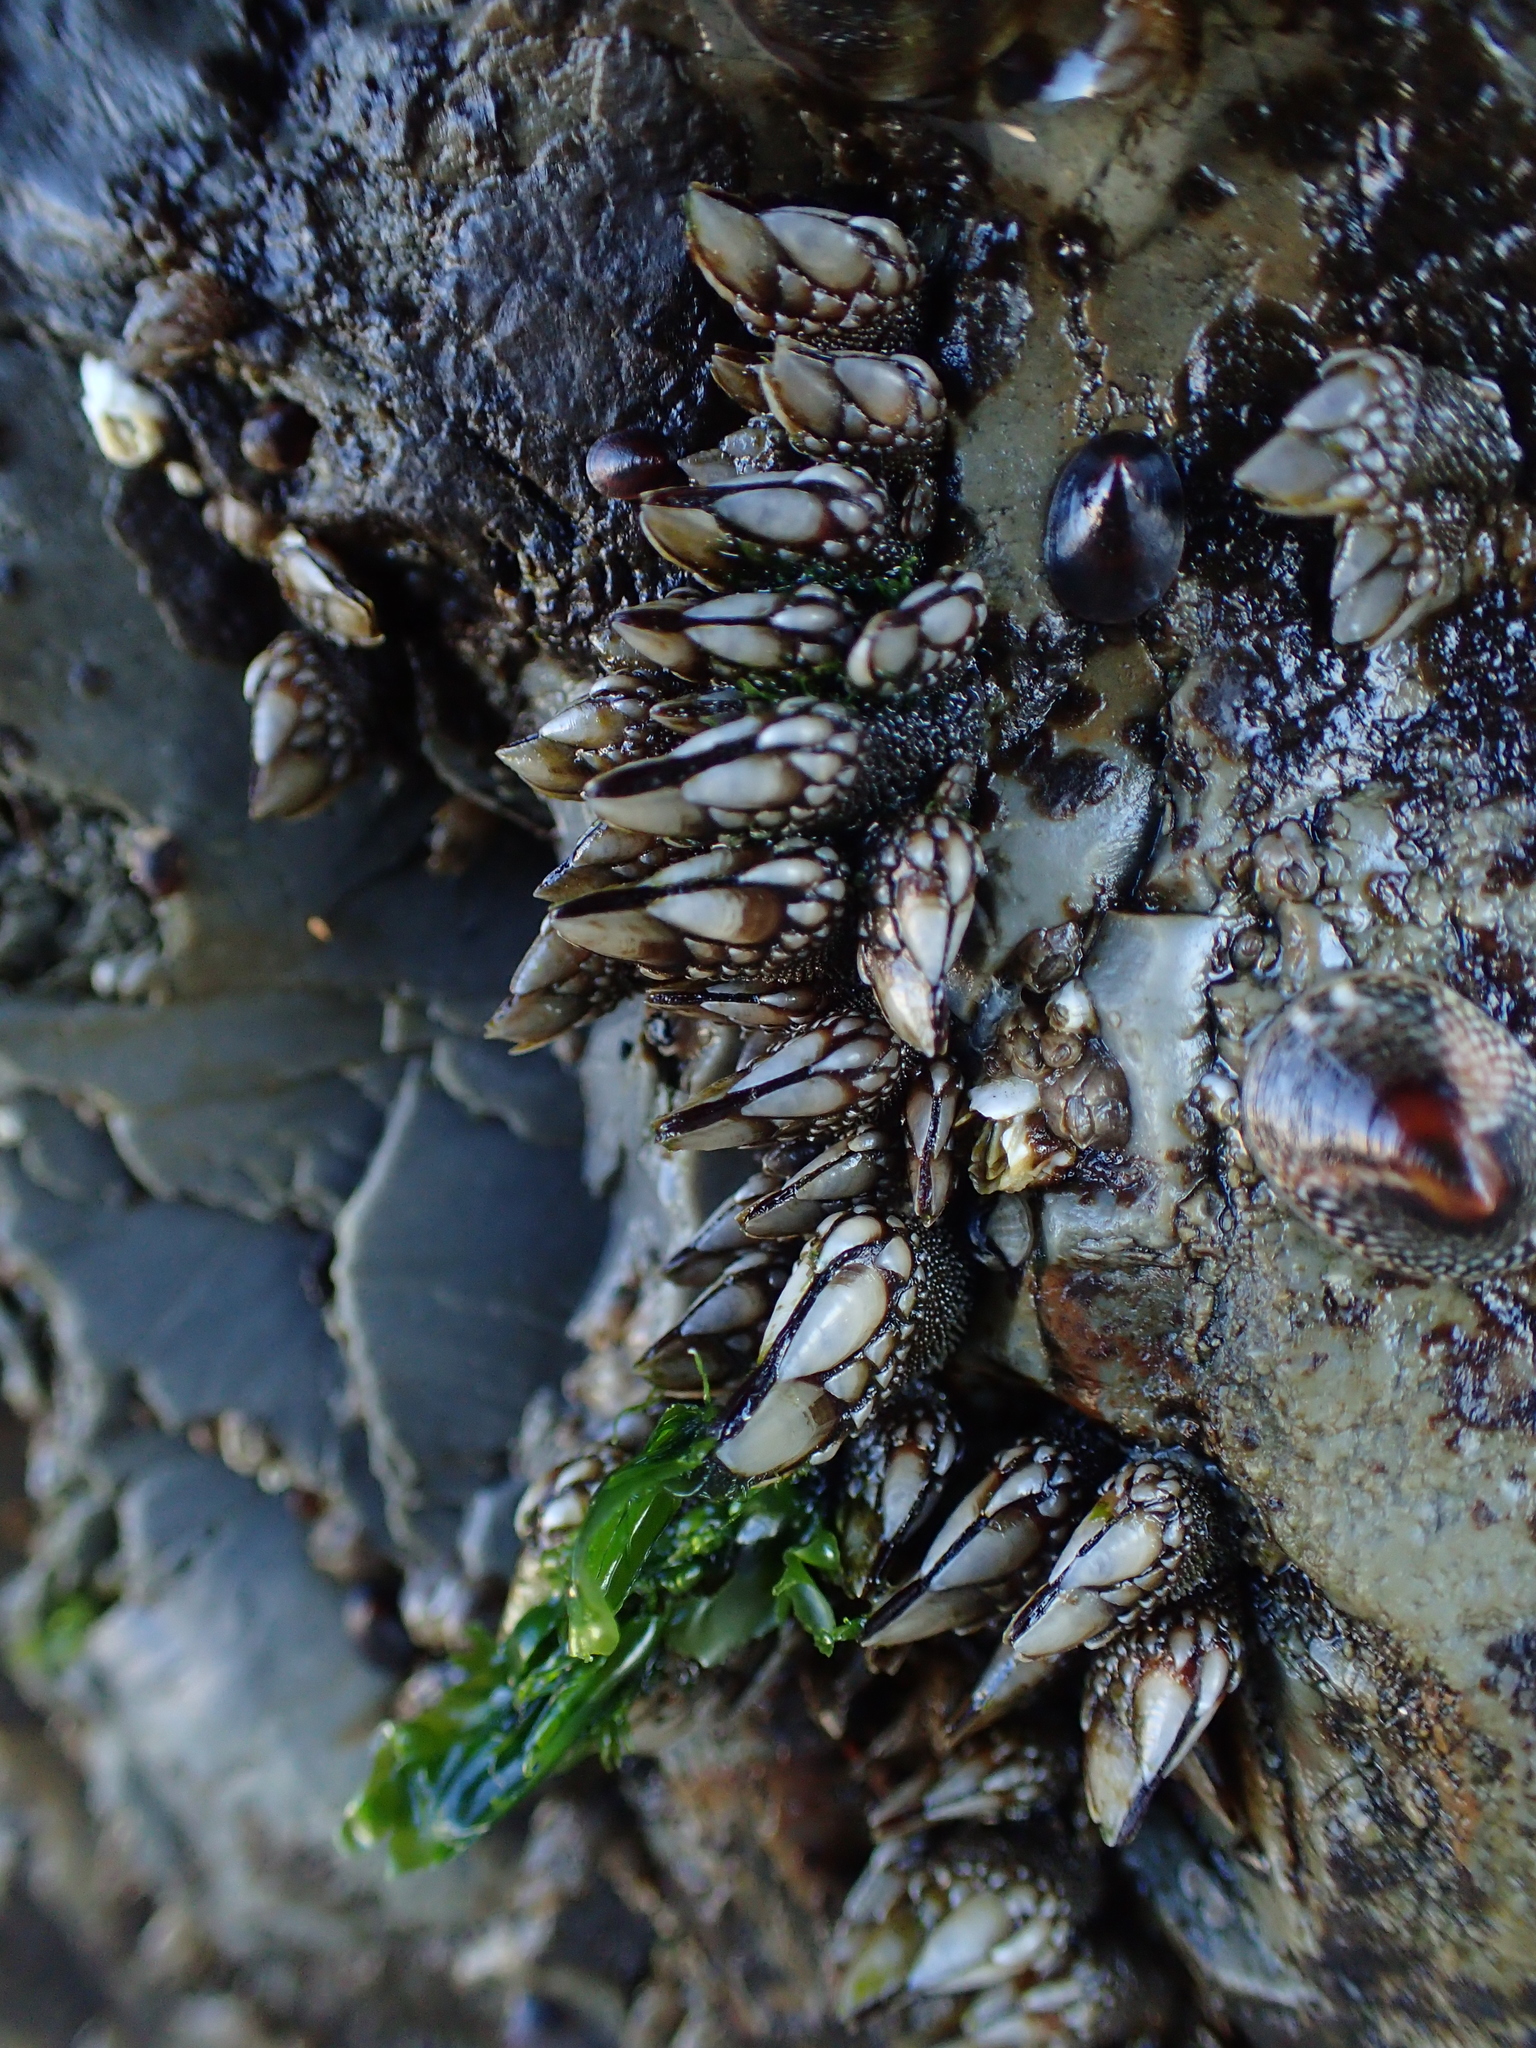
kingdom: Animalia
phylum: Arthropoda
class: Maxillopoda
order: Pedunculata
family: Pollicipedidae
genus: Pollicipes
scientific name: Pollicipes polymerus
